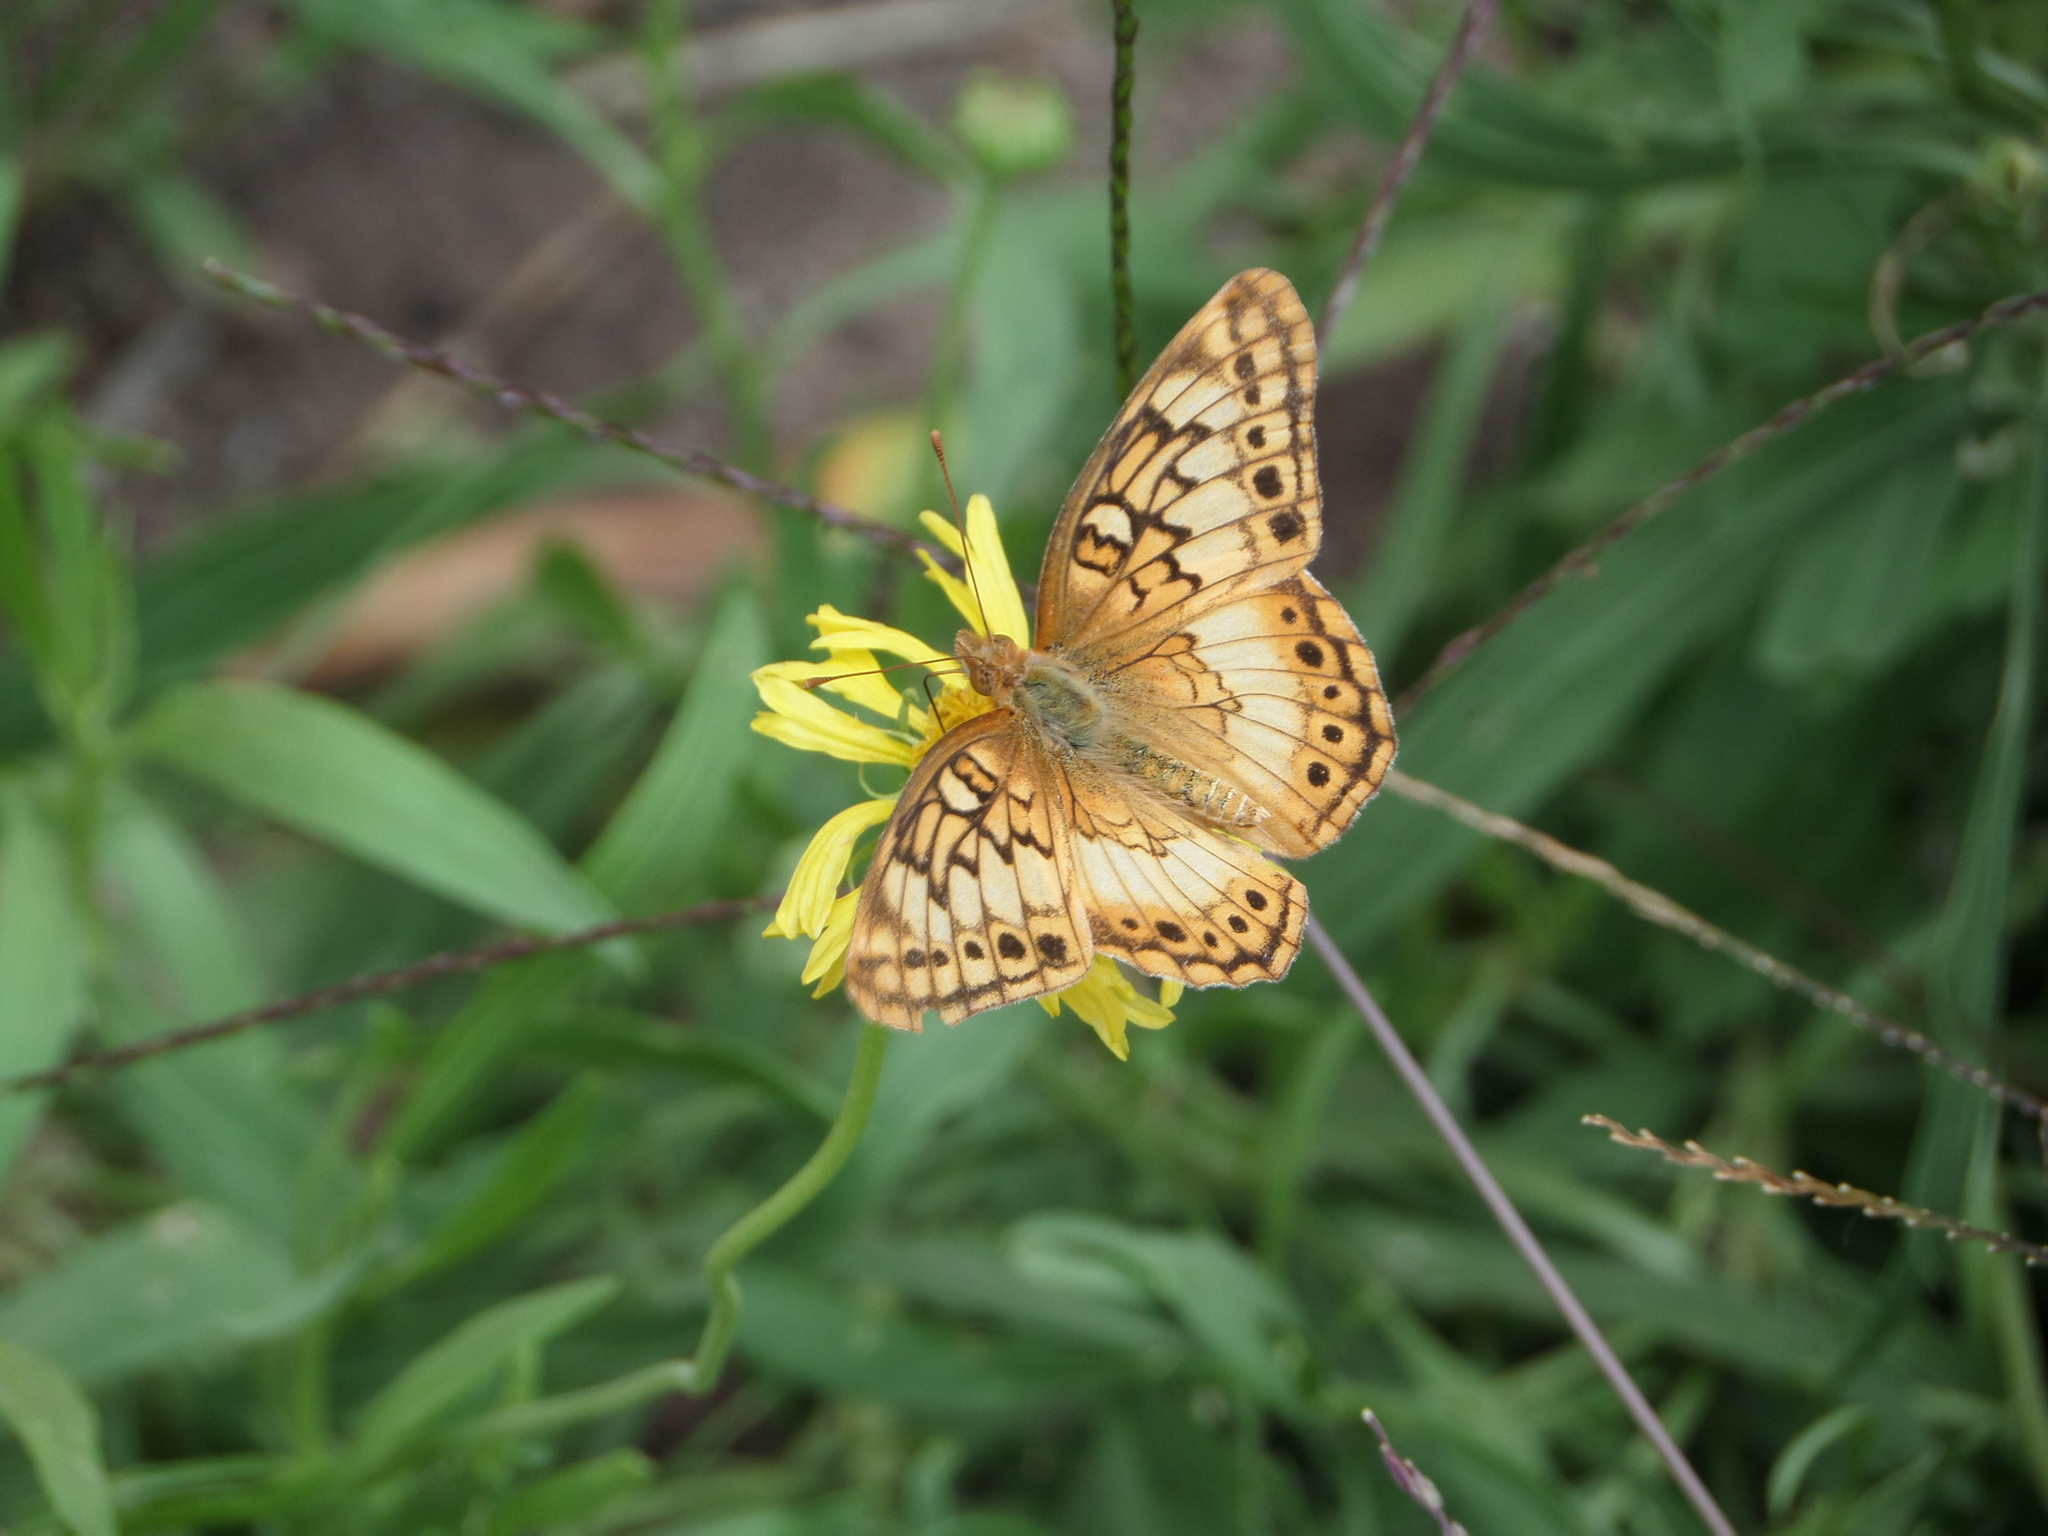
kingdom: Animalia
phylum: Arthropoda
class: Insecta
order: Lepidoptera
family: Nymphalidae
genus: Euptoieta
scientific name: Euptoieta hortensia
